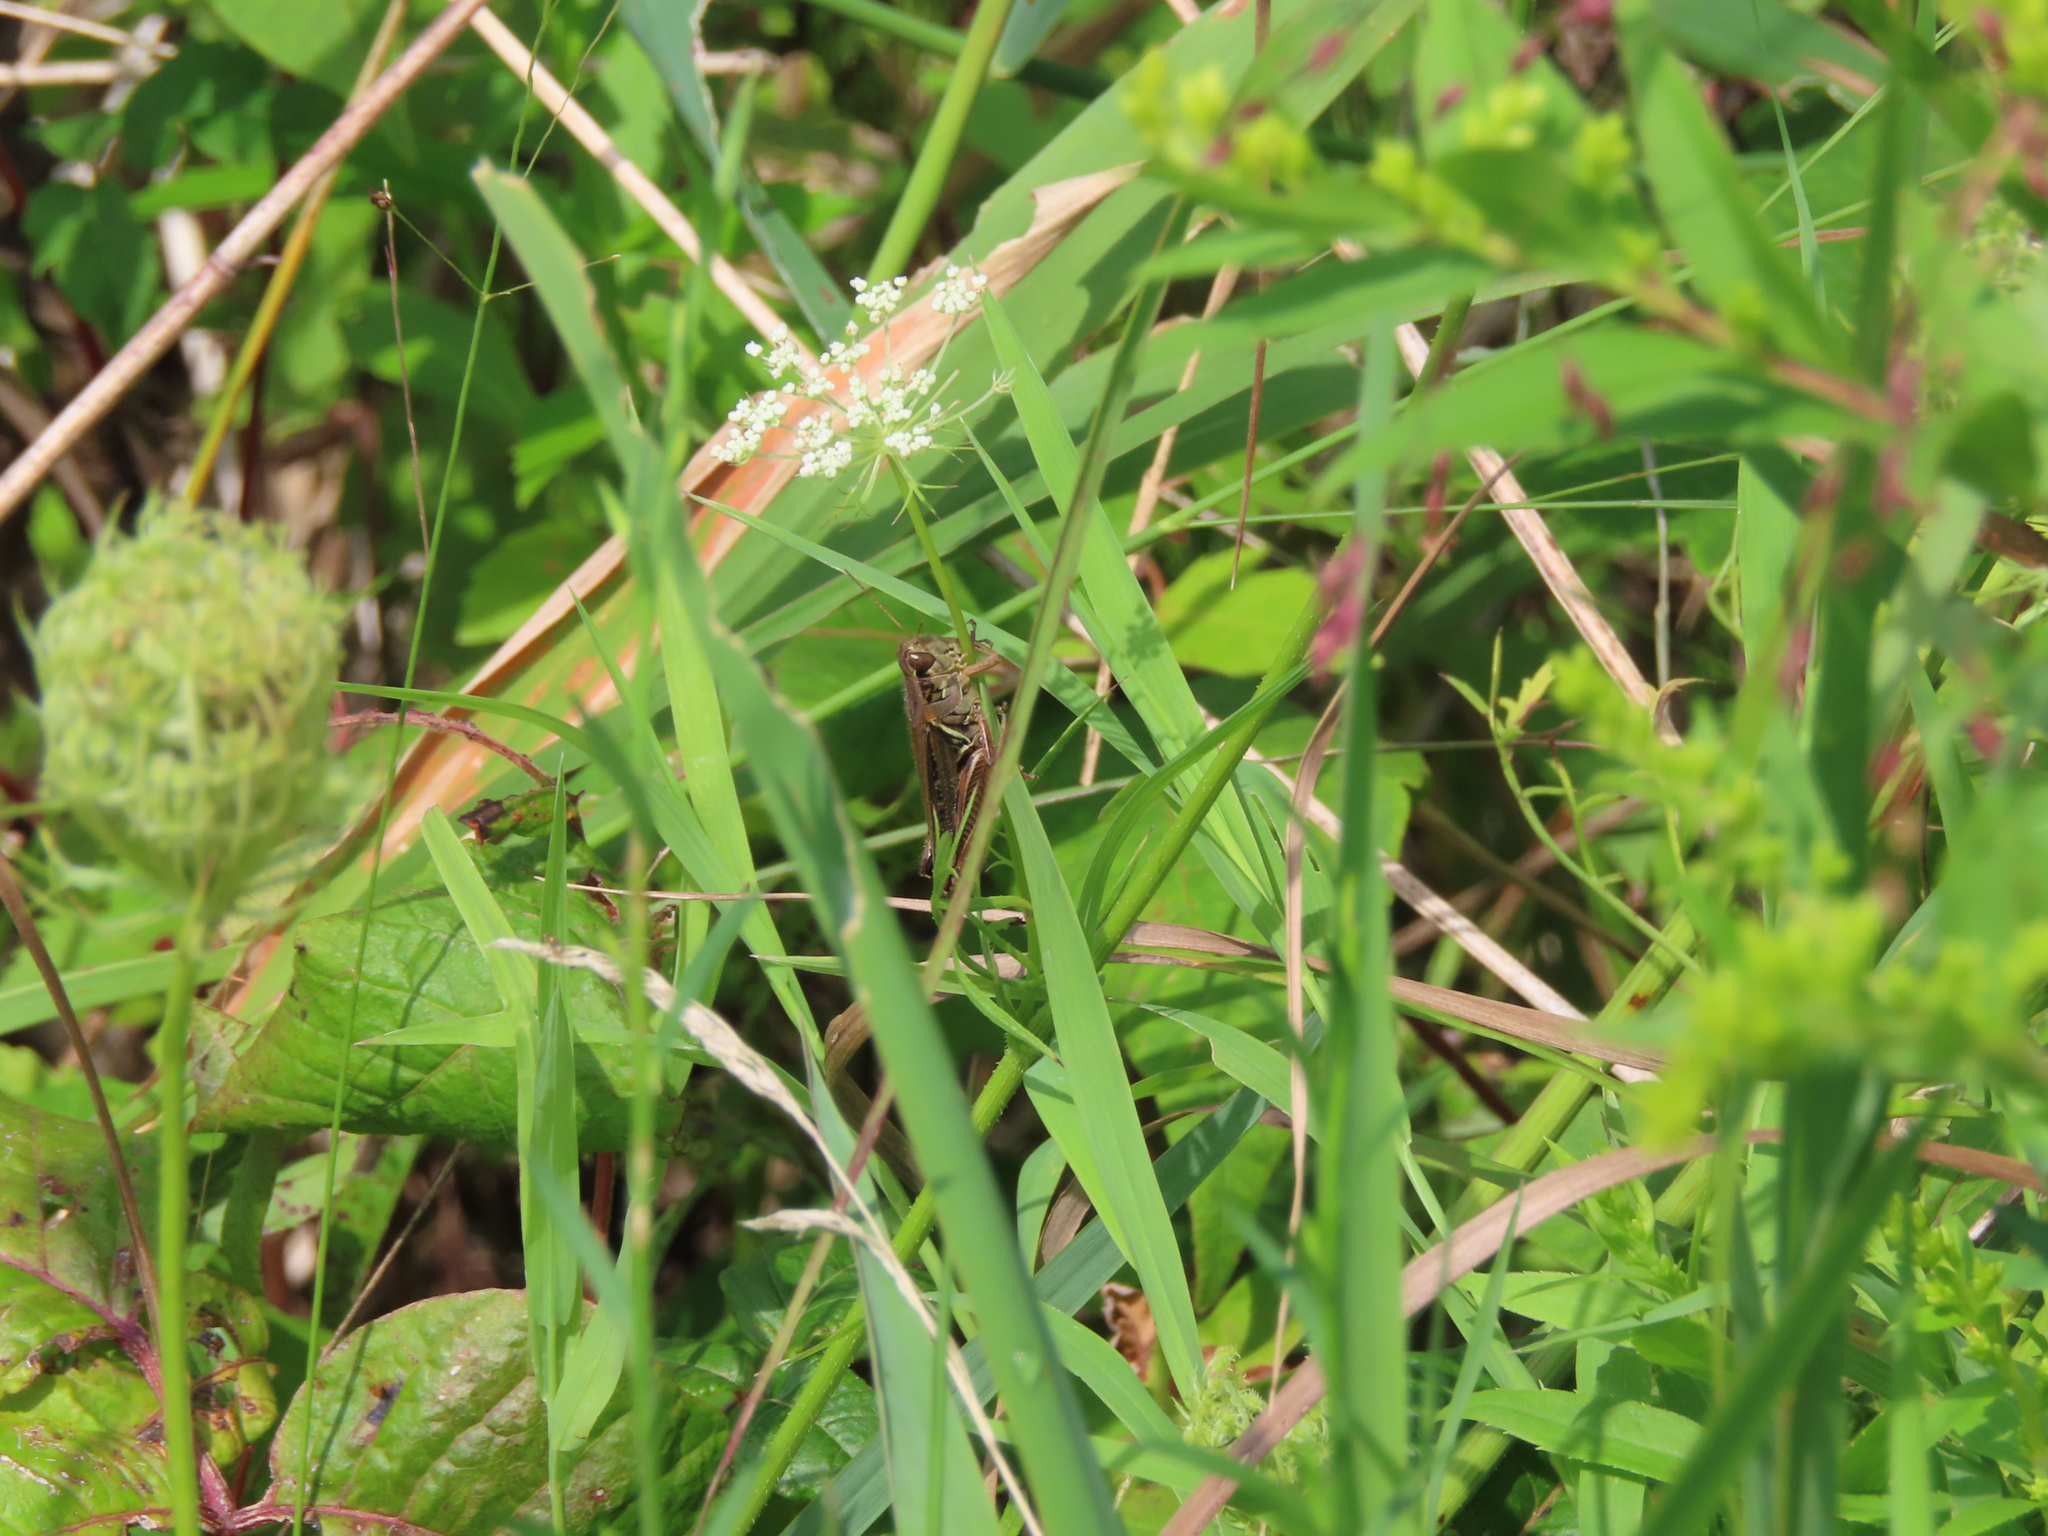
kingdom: Plantae
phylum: Tracheophyta
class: Magnoliopsida
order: Apiales
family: Apiaceae
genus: Daucus
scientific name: Daucus carota
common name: Wild carrot
